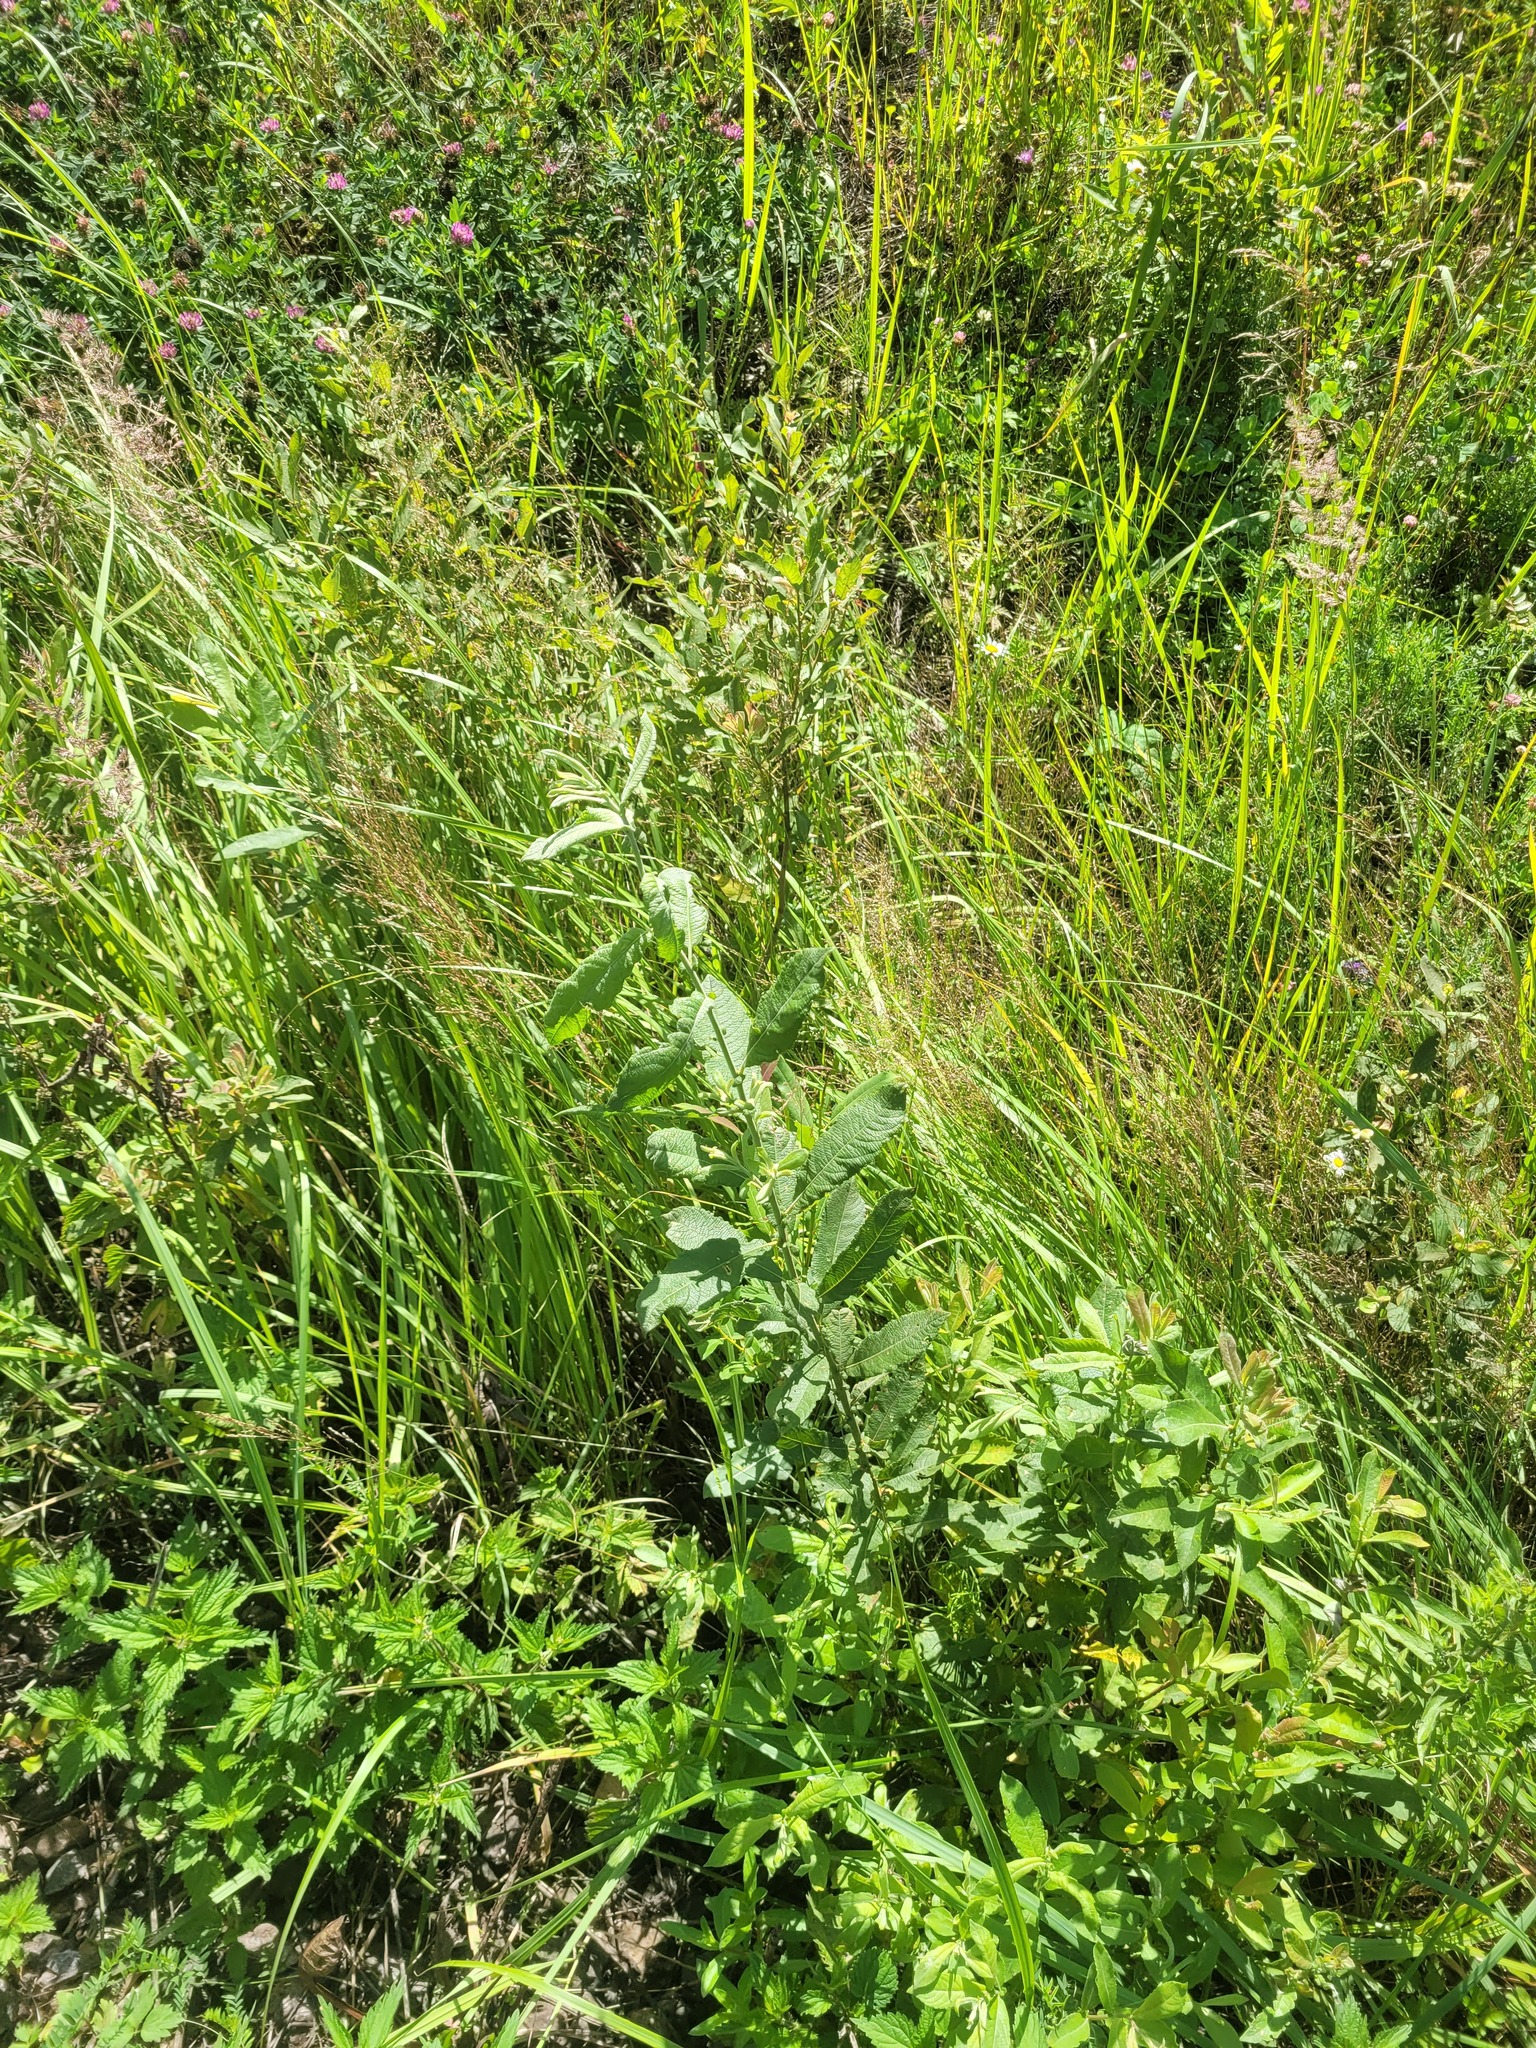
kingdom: Plantae
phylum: Tracheophyta
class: Magnoliopsida
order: Malpighiales
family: Salicaceae
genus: Salix
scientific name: Salix cinerea
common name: Common sallow
